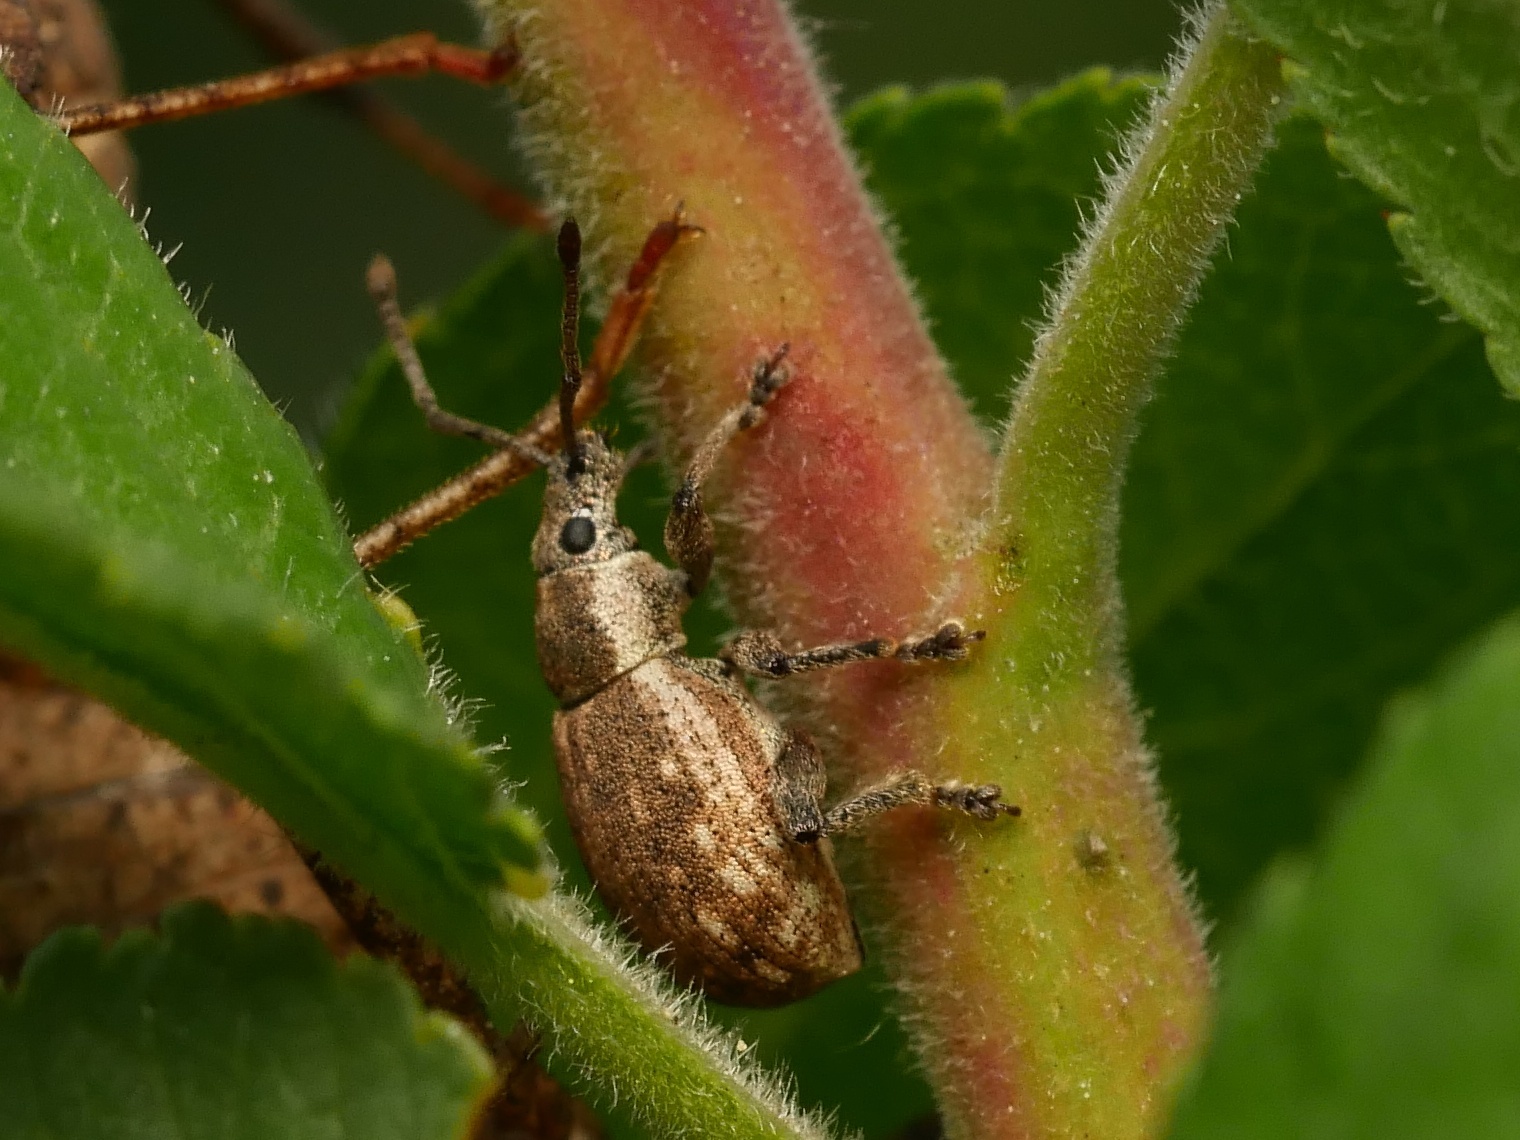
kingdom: Animalia
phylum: Arthropoda
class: Insecta
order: Coleoptera
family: Curculionidae
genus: Peritelus
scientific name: Peritelus sphaeroides
